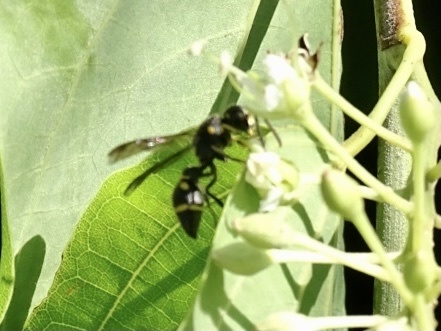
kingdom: Animalia
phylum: Arthropoda
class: Insecta
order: Hymenoptera
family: Eumenidae
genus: Apodynerus
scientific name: Apodynerus formosensis
